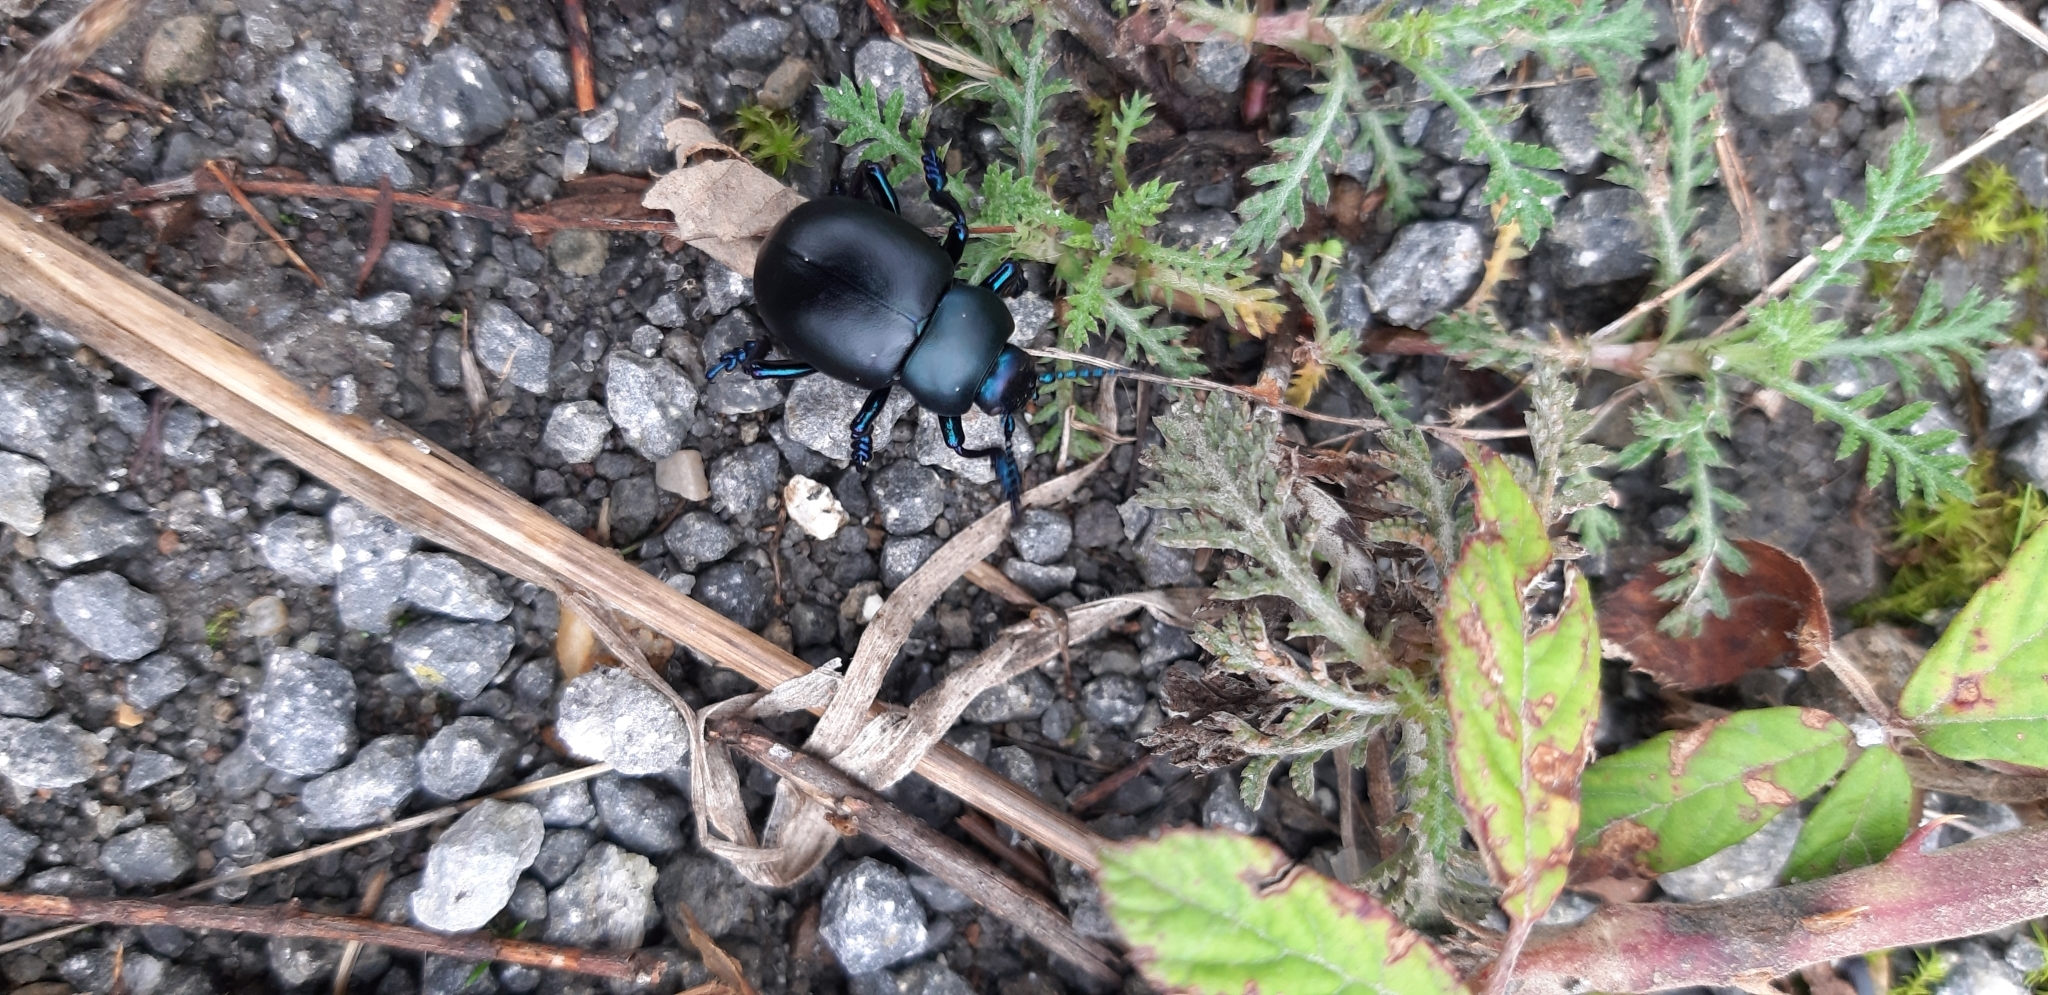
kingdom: Animalia
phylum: Arthropoda
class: Insecta
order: Coleoptera
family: Chrysomelidae
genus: Timarcha
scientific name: Timarcha nicaeensis
